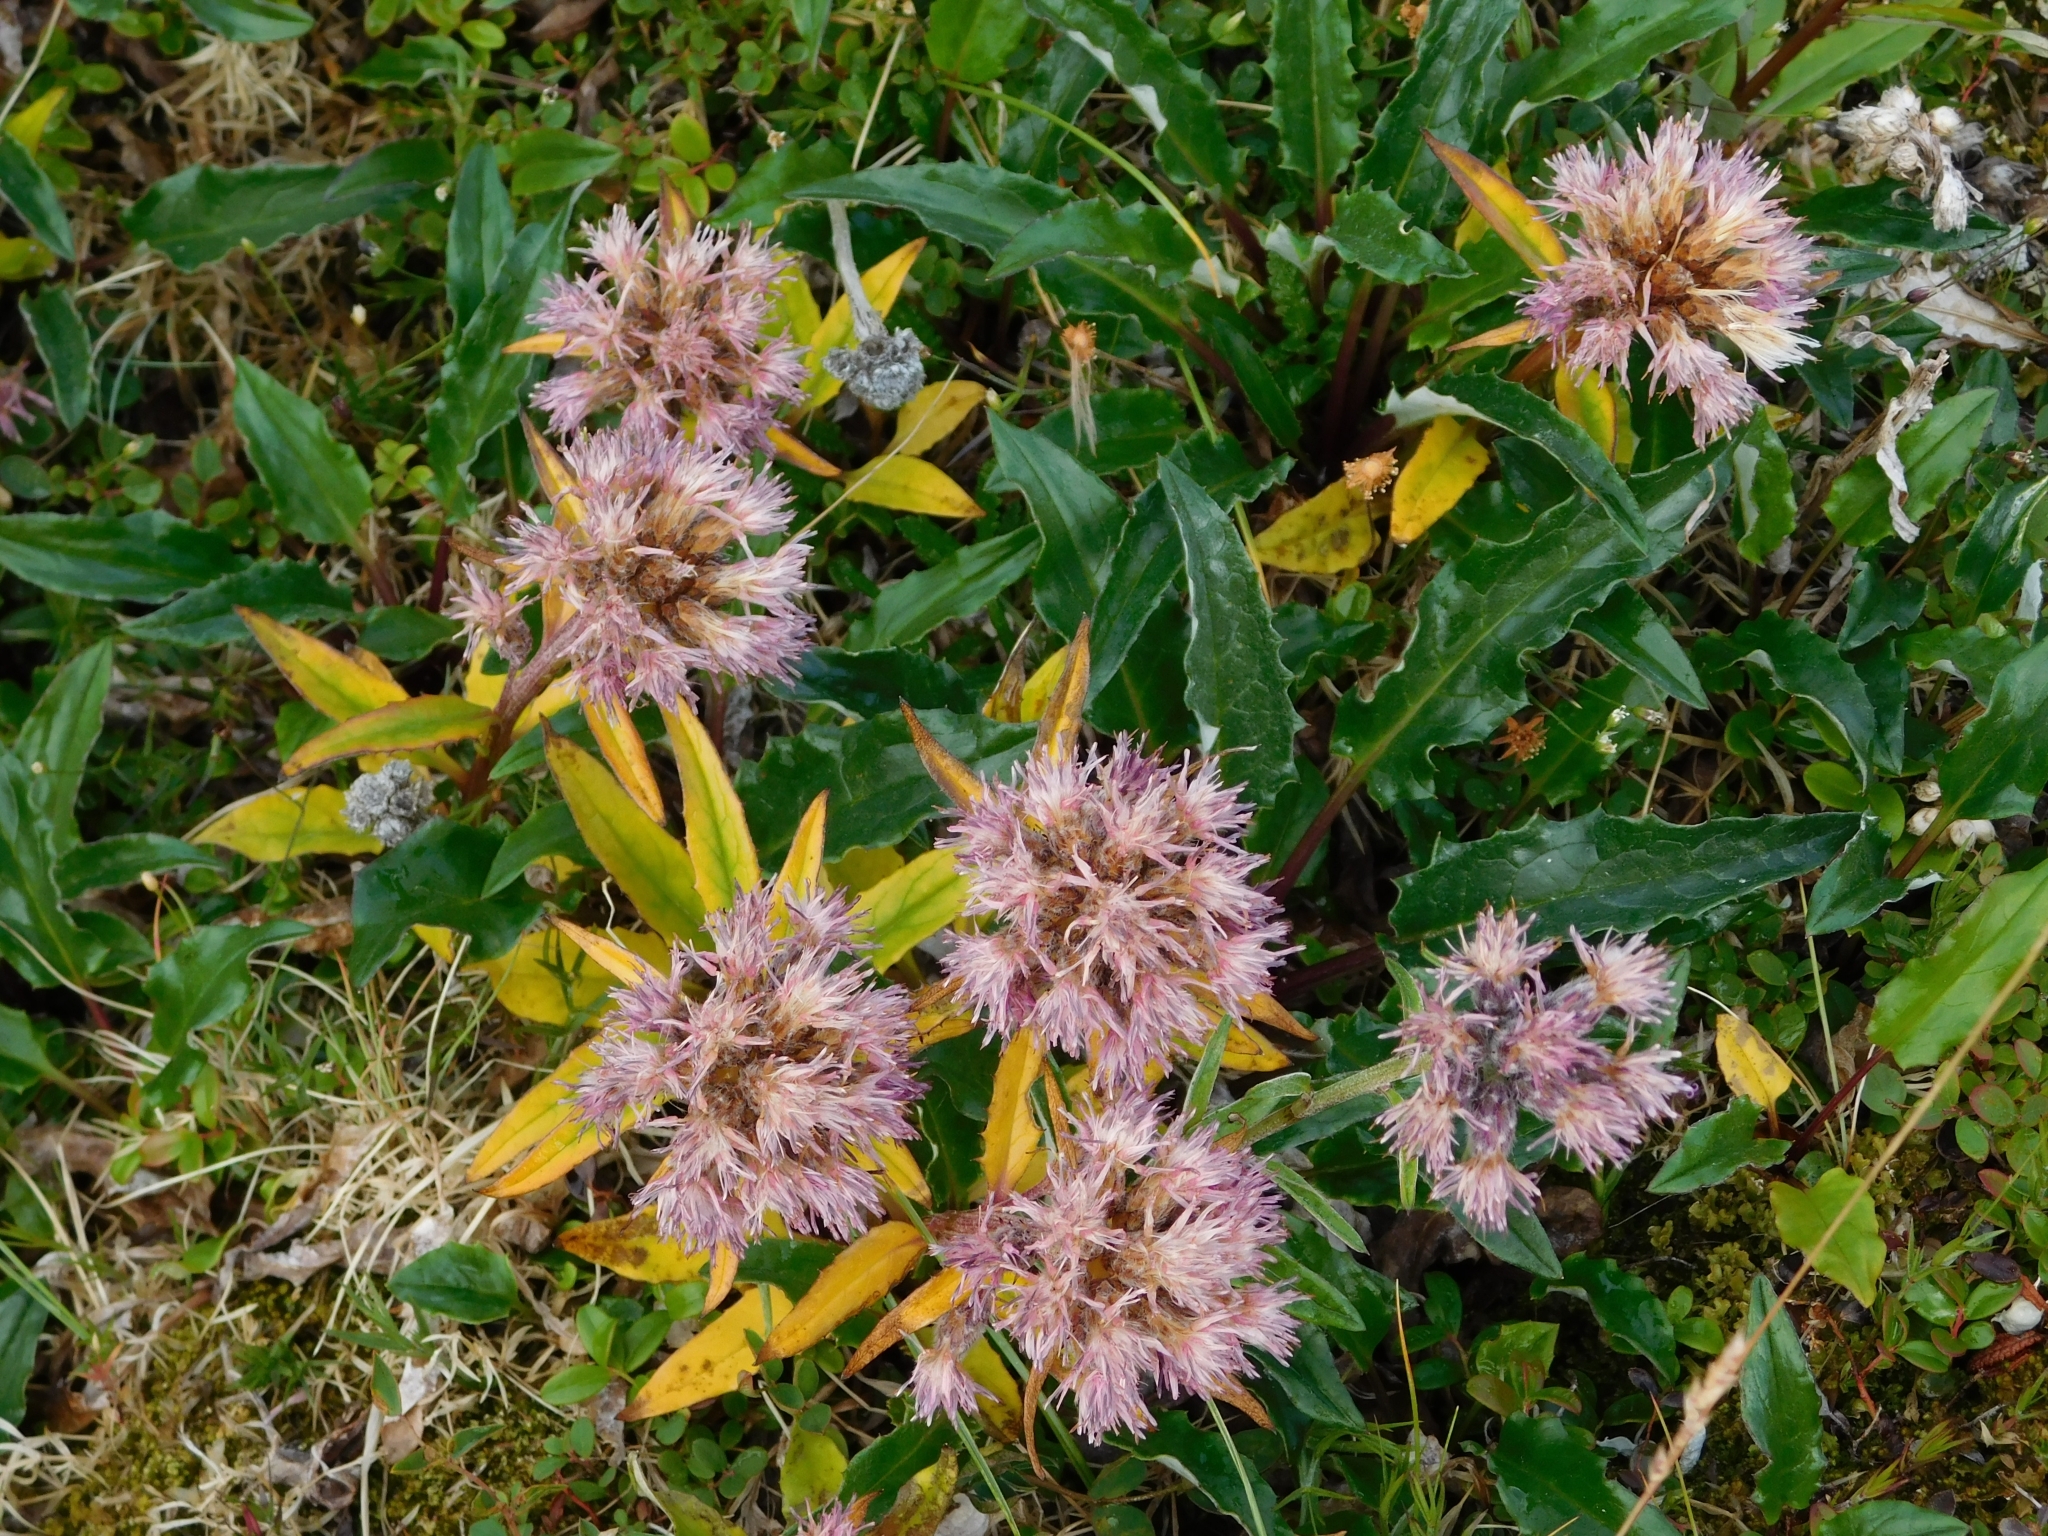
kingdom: Plantae
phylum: Tracheophyta
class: Magnoliopsida
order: Asterales
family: Asteraceae
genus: Saussurea
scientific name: Saussurea tilesii
